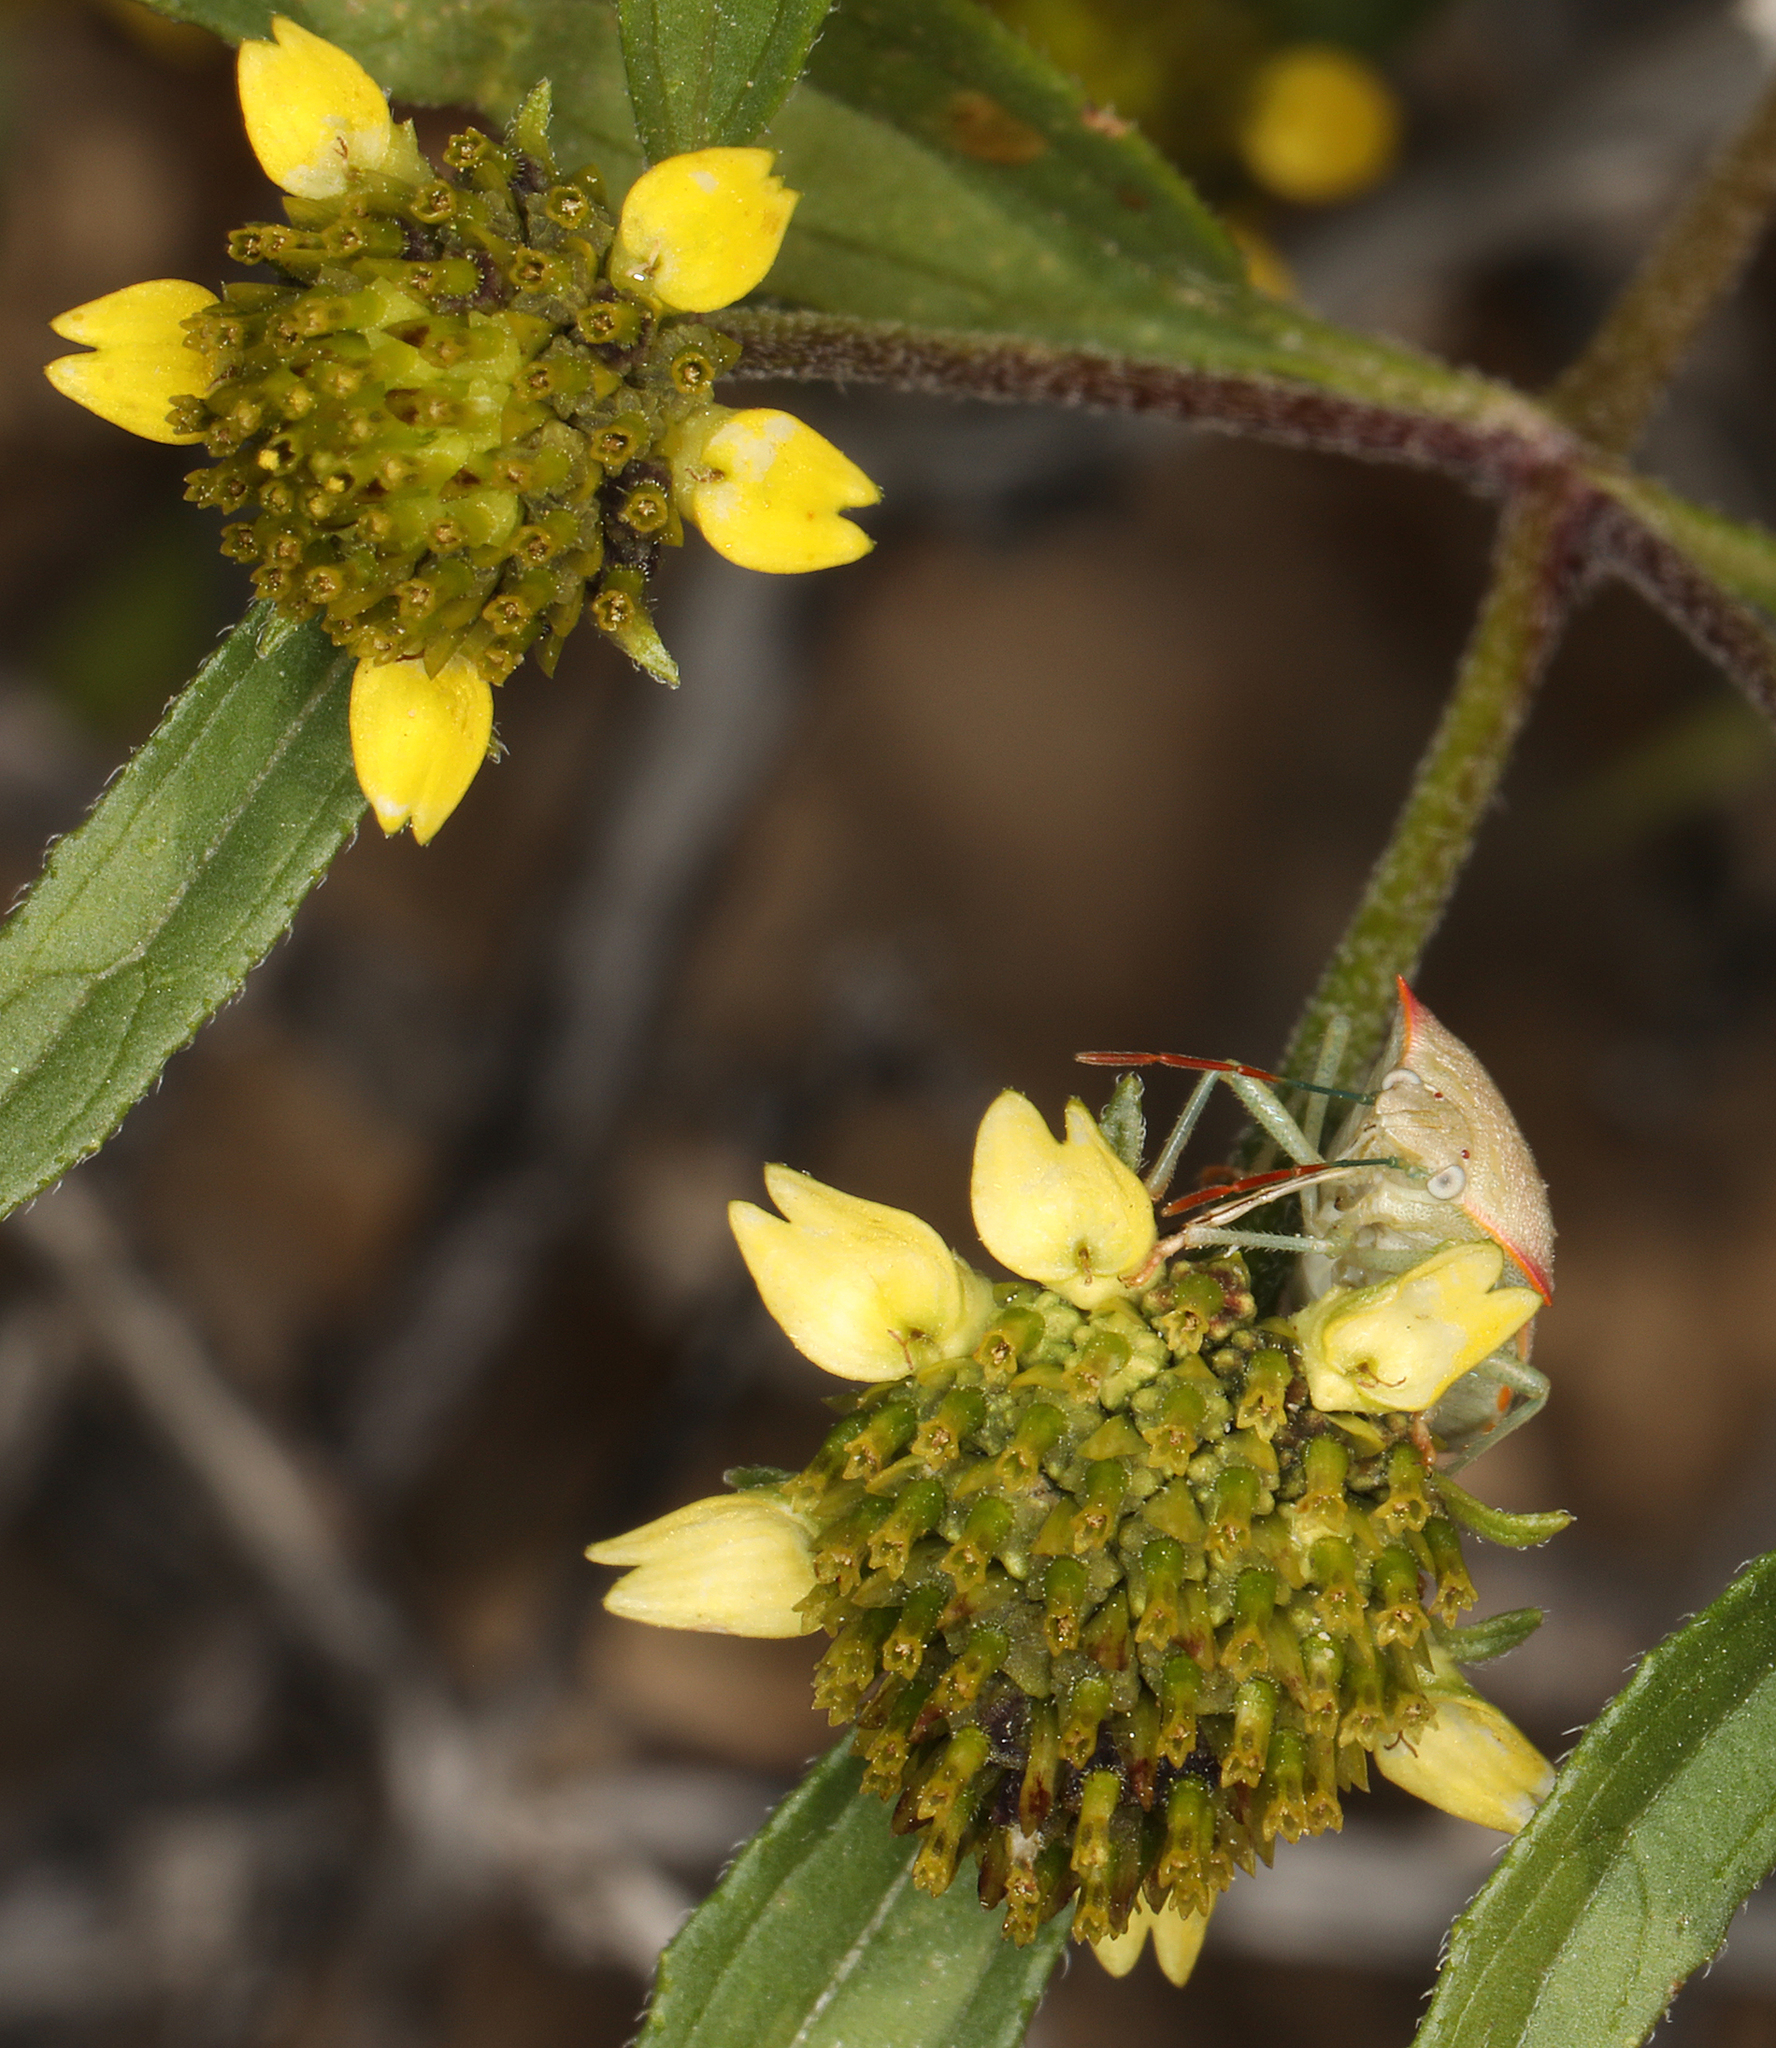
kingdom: Plantae
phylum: Tracheophyta
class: Magnoliopsida
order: Asterales
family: Asteraceae
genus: Sanvitalia
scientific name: Sanvitalia abertii
